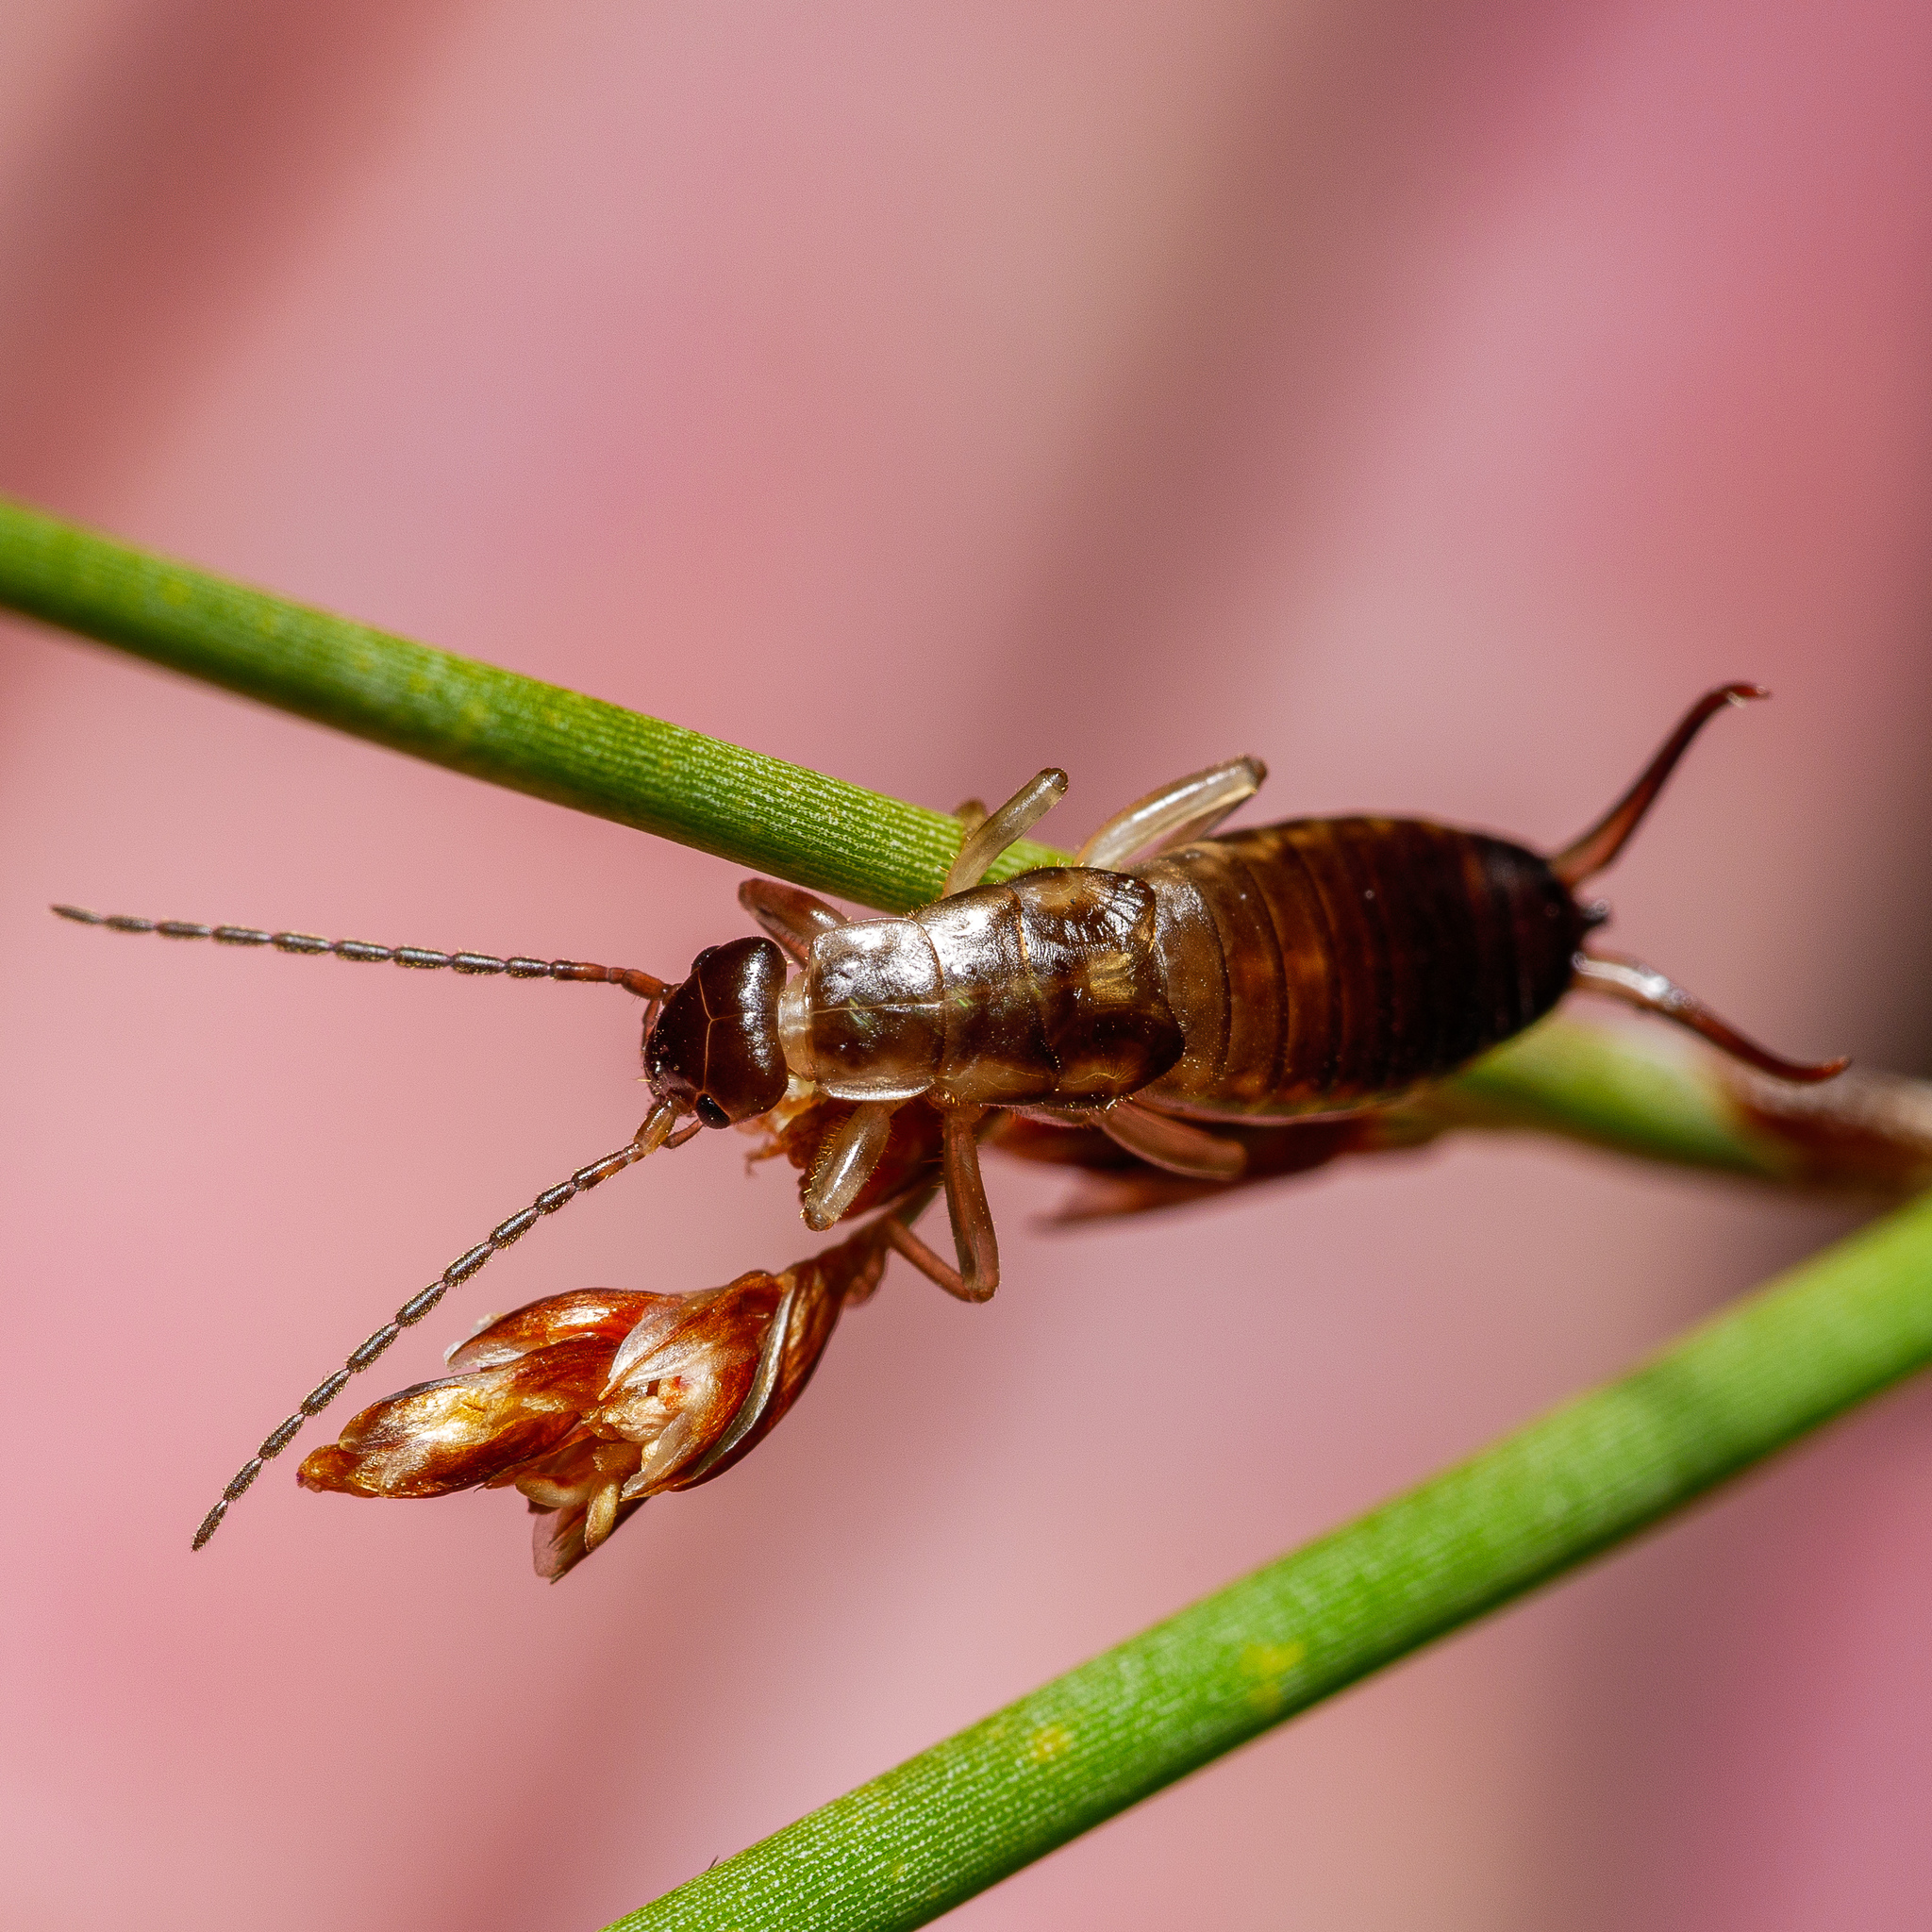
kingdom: Animalia
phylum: Arthropoda
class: Insecta
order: Dermaptera
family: Forficulidae
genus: Forficula
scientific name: Forficula dentata
